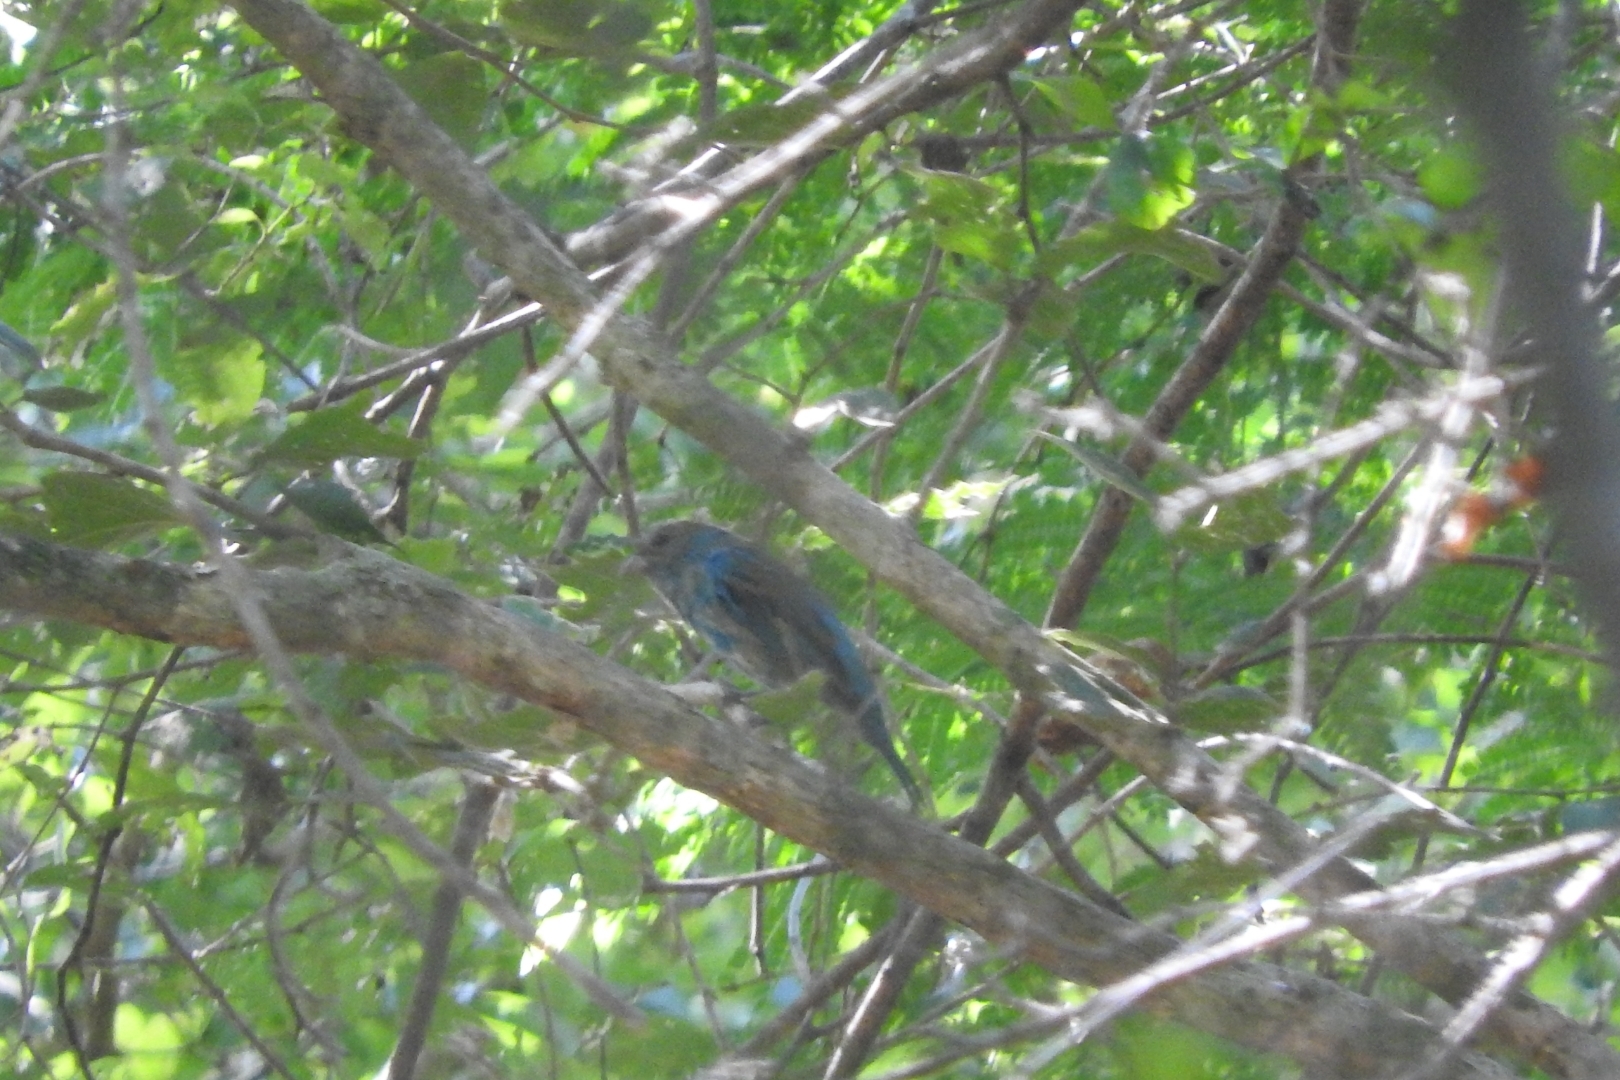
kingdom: Animalia
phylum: Chordata
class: Aves
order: Passeriformes
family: Cardinalidae
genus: Passerina
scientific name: Passerina cyanea
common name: Indigo bunting
